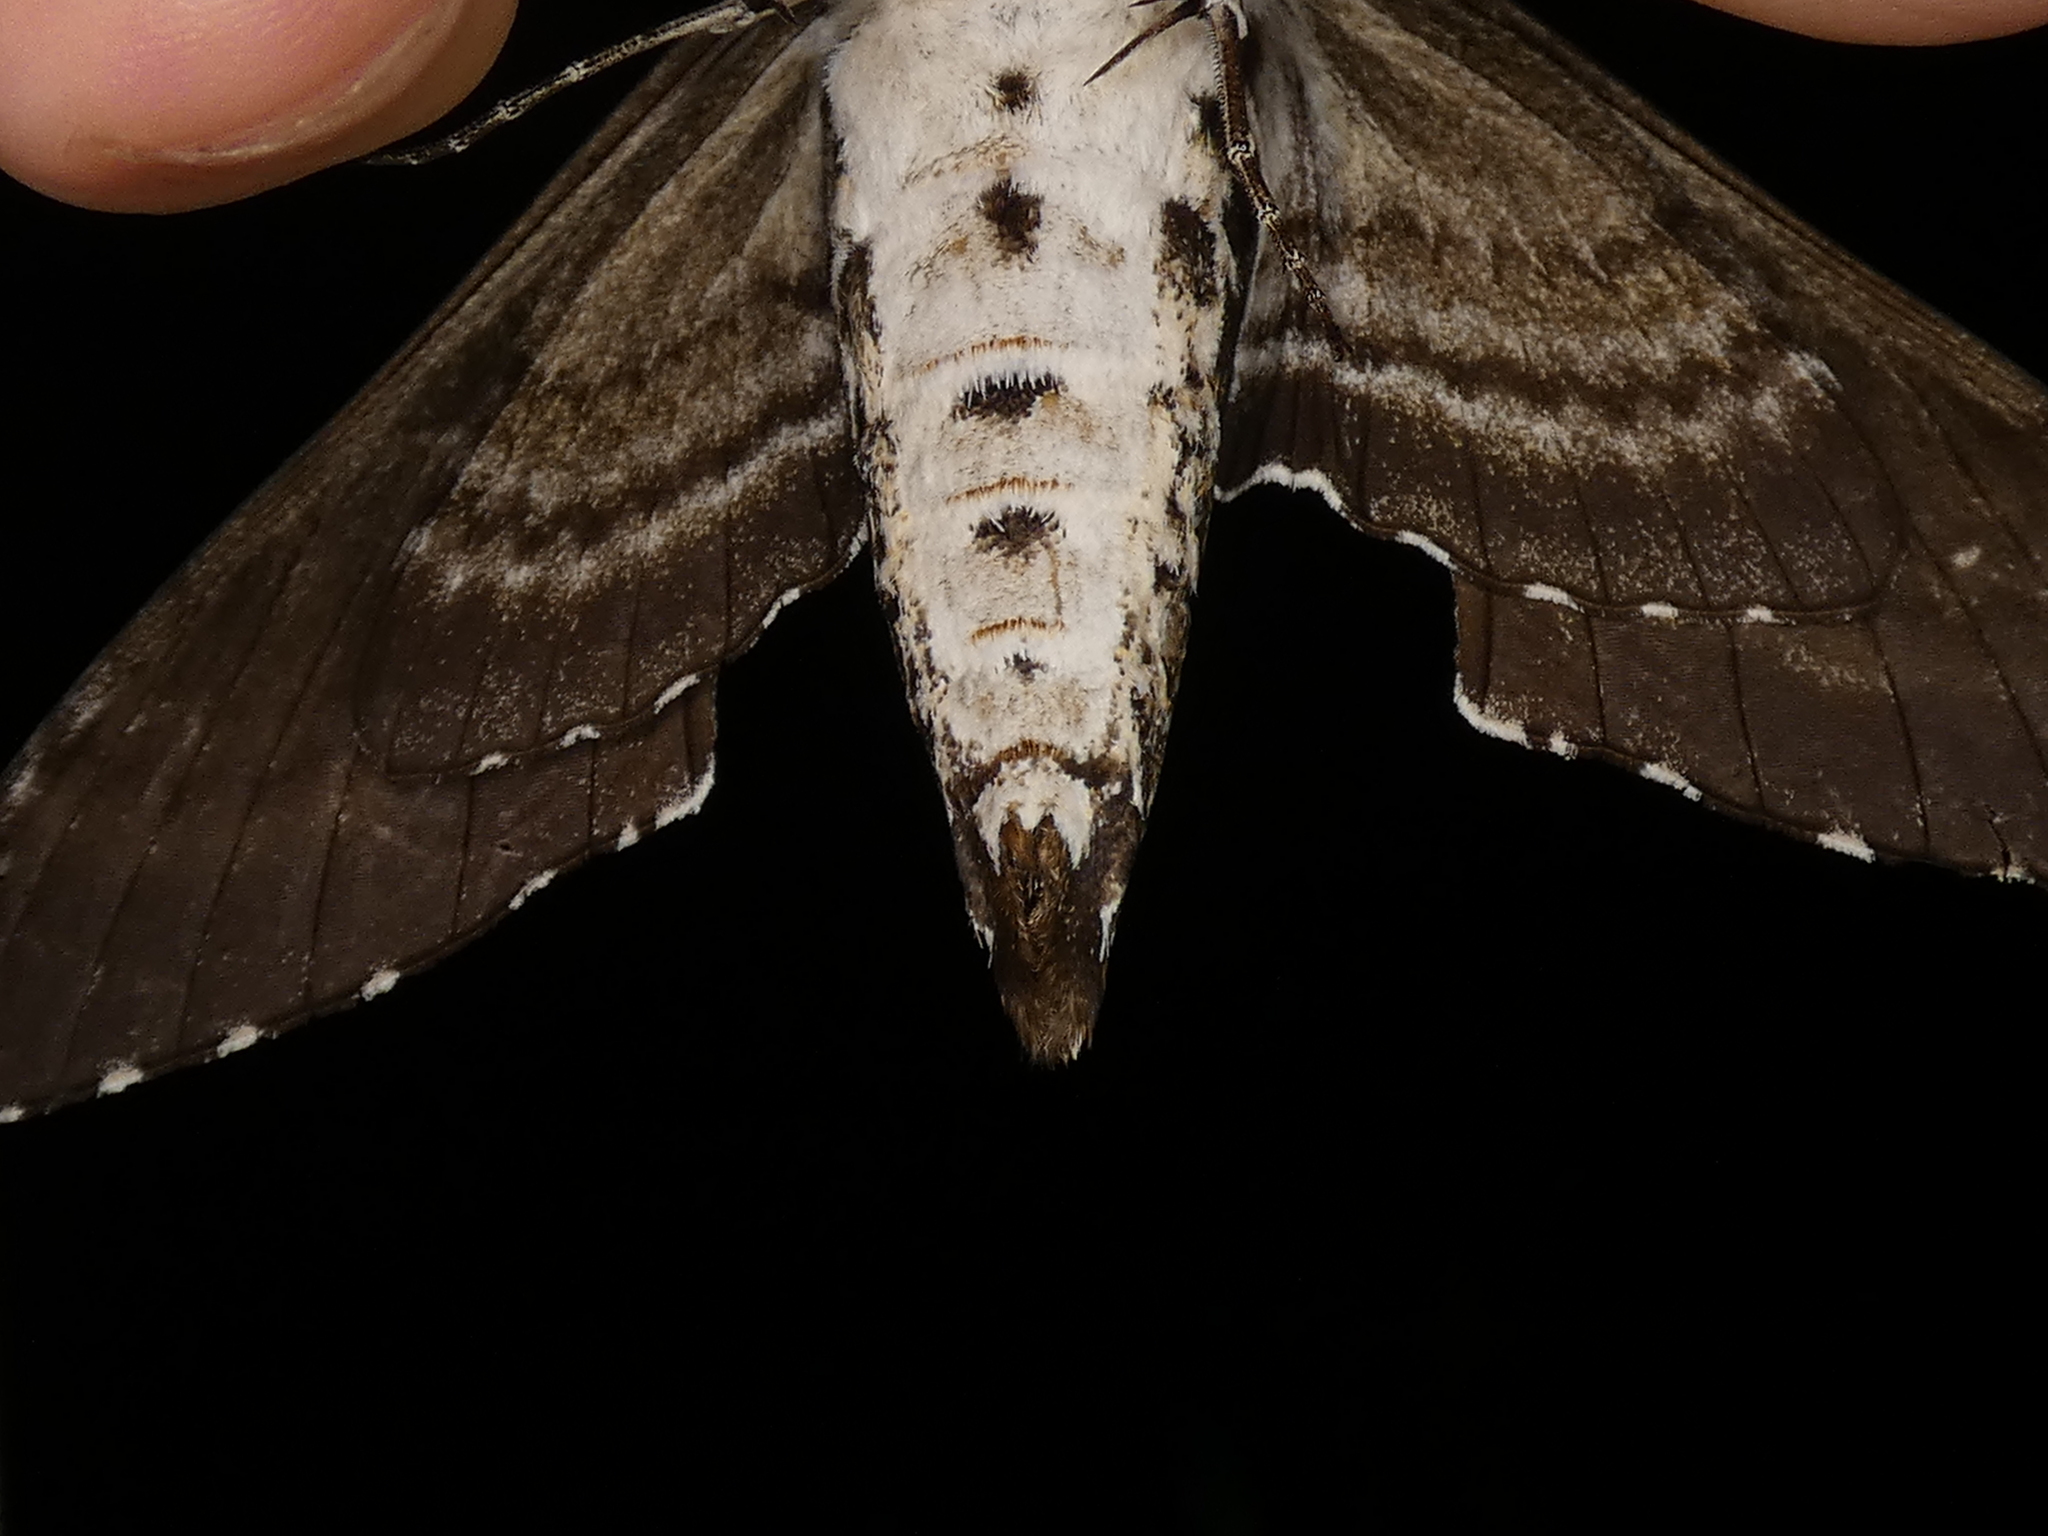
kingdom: Animalia
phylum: Arthropoda
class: Insecta
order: Lepidoptera
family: Sphingidae
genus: Manduca
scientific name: Manduca rustica
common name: Rustic sphinx
